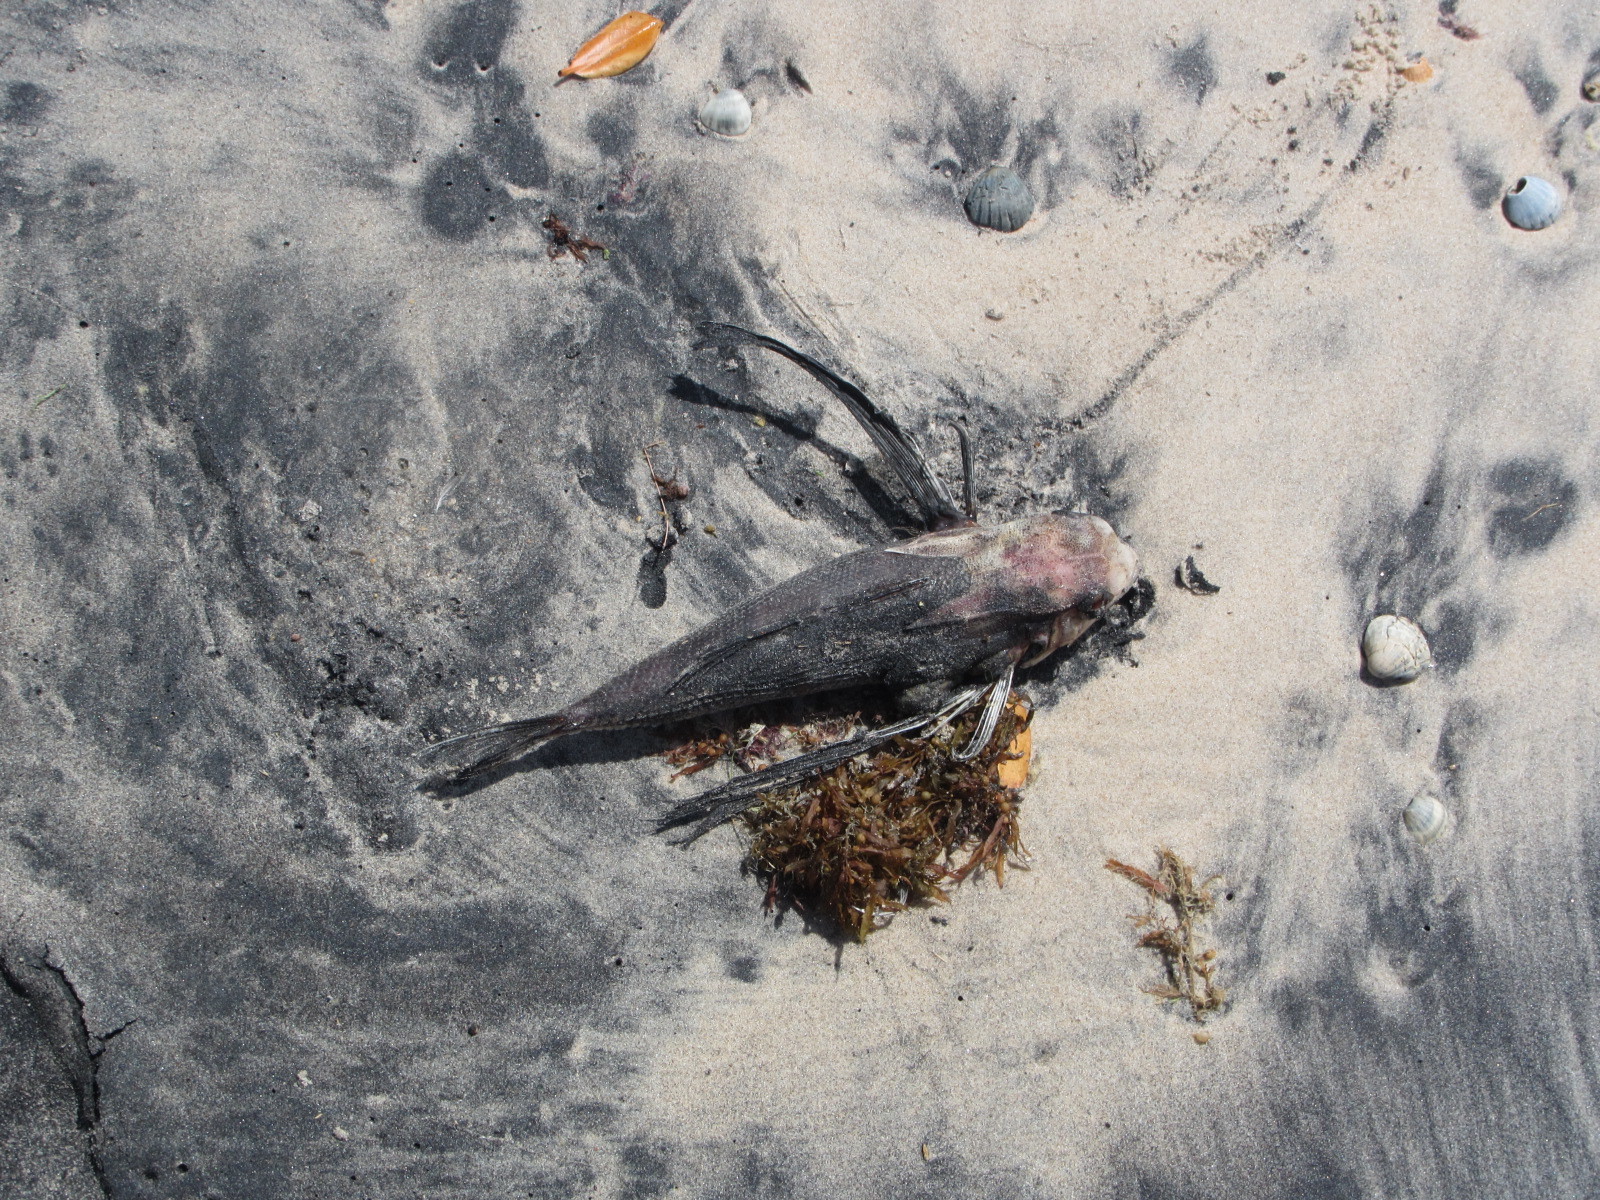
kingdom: Animalia
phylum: Chordata
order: Scorpaeniformes
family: Dactylopteridae
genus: Dactylopterus
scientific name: Dactylopterus volitans
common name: Flying gurnard
